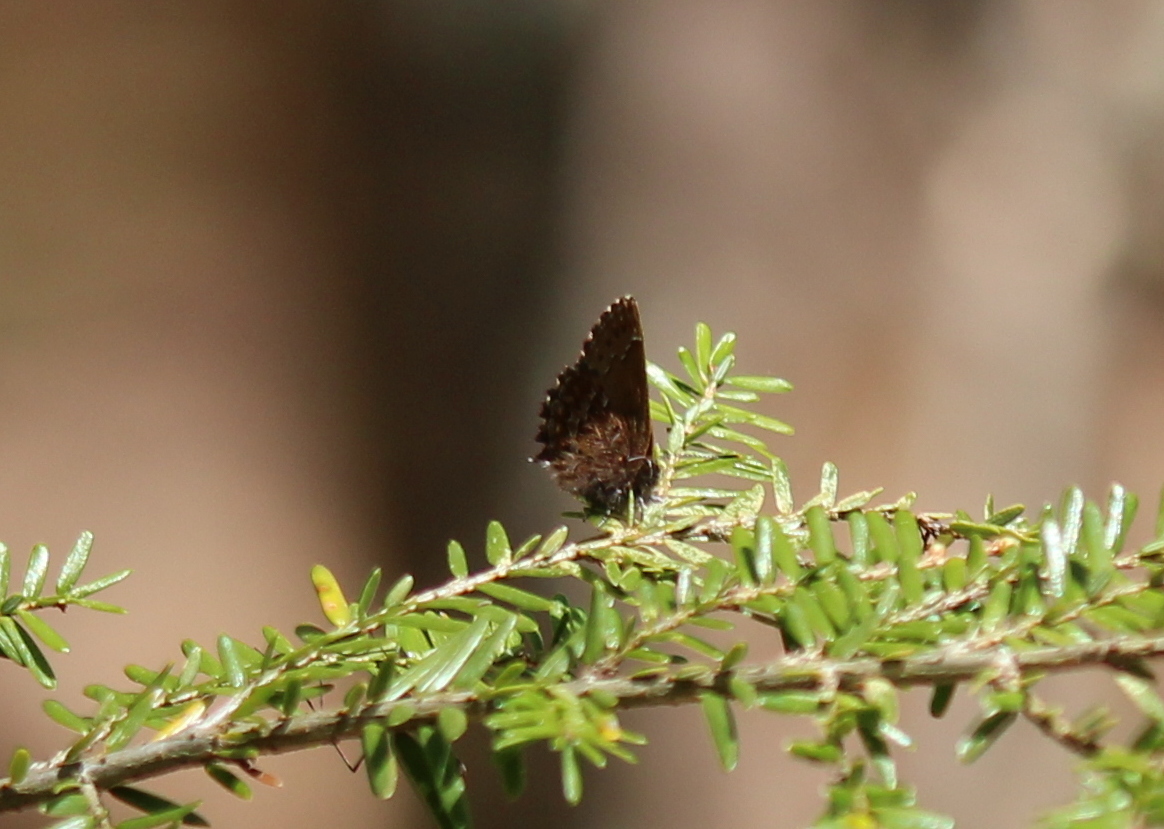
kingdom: Animalia
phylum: Arthropoda
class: Insecta
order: Lepidoptera
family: Lycaenidae
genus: Incisalia
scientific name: Incisalia niphon
